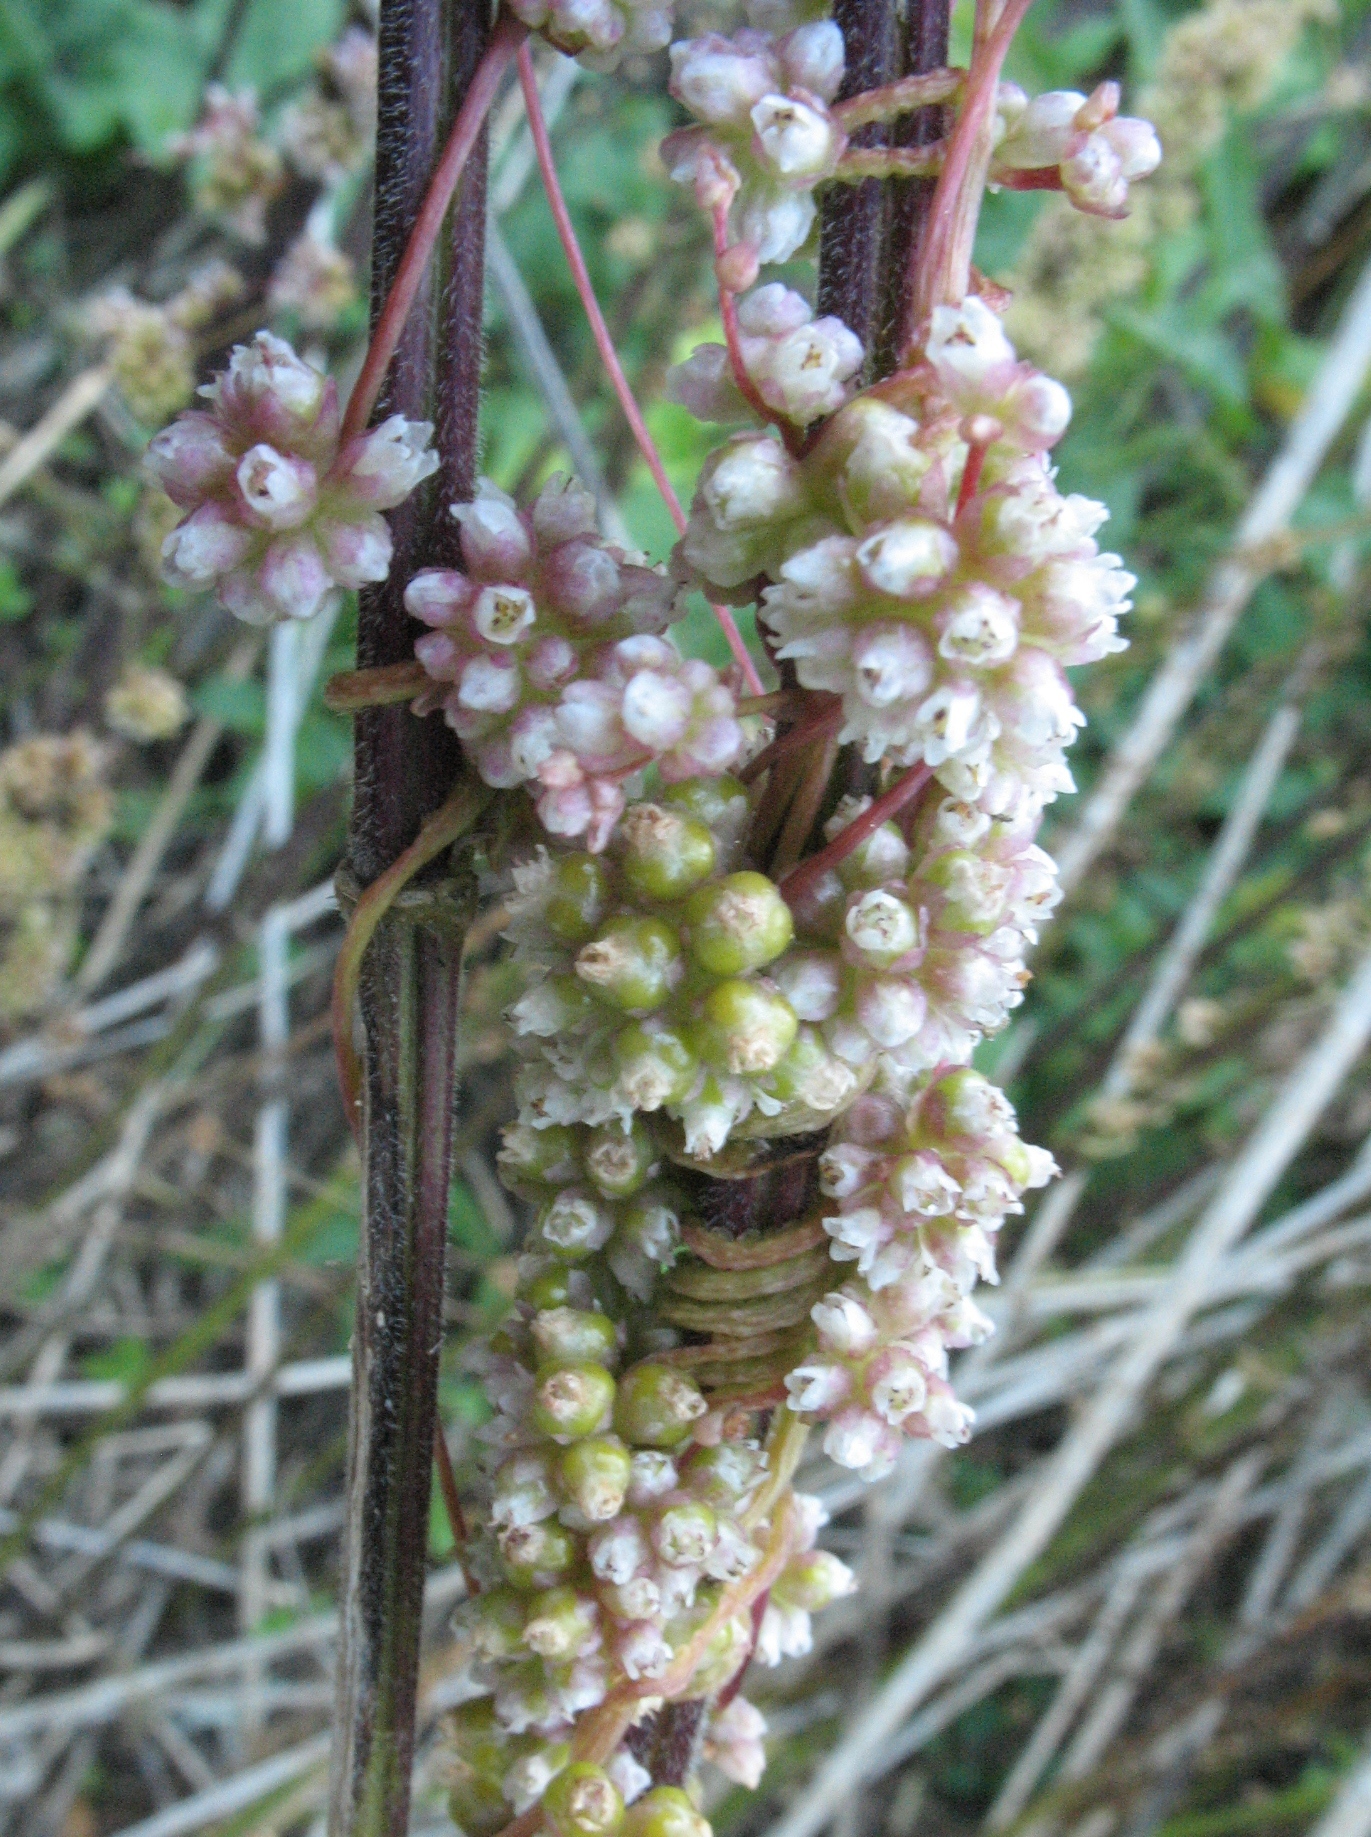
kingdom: Plantae
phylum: Tracheophyta
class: Magnoliopsida
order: Solanales
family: Convolvulaceae
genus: Cuscuta
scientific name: Cuscuta europaea
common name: Greater dodder
